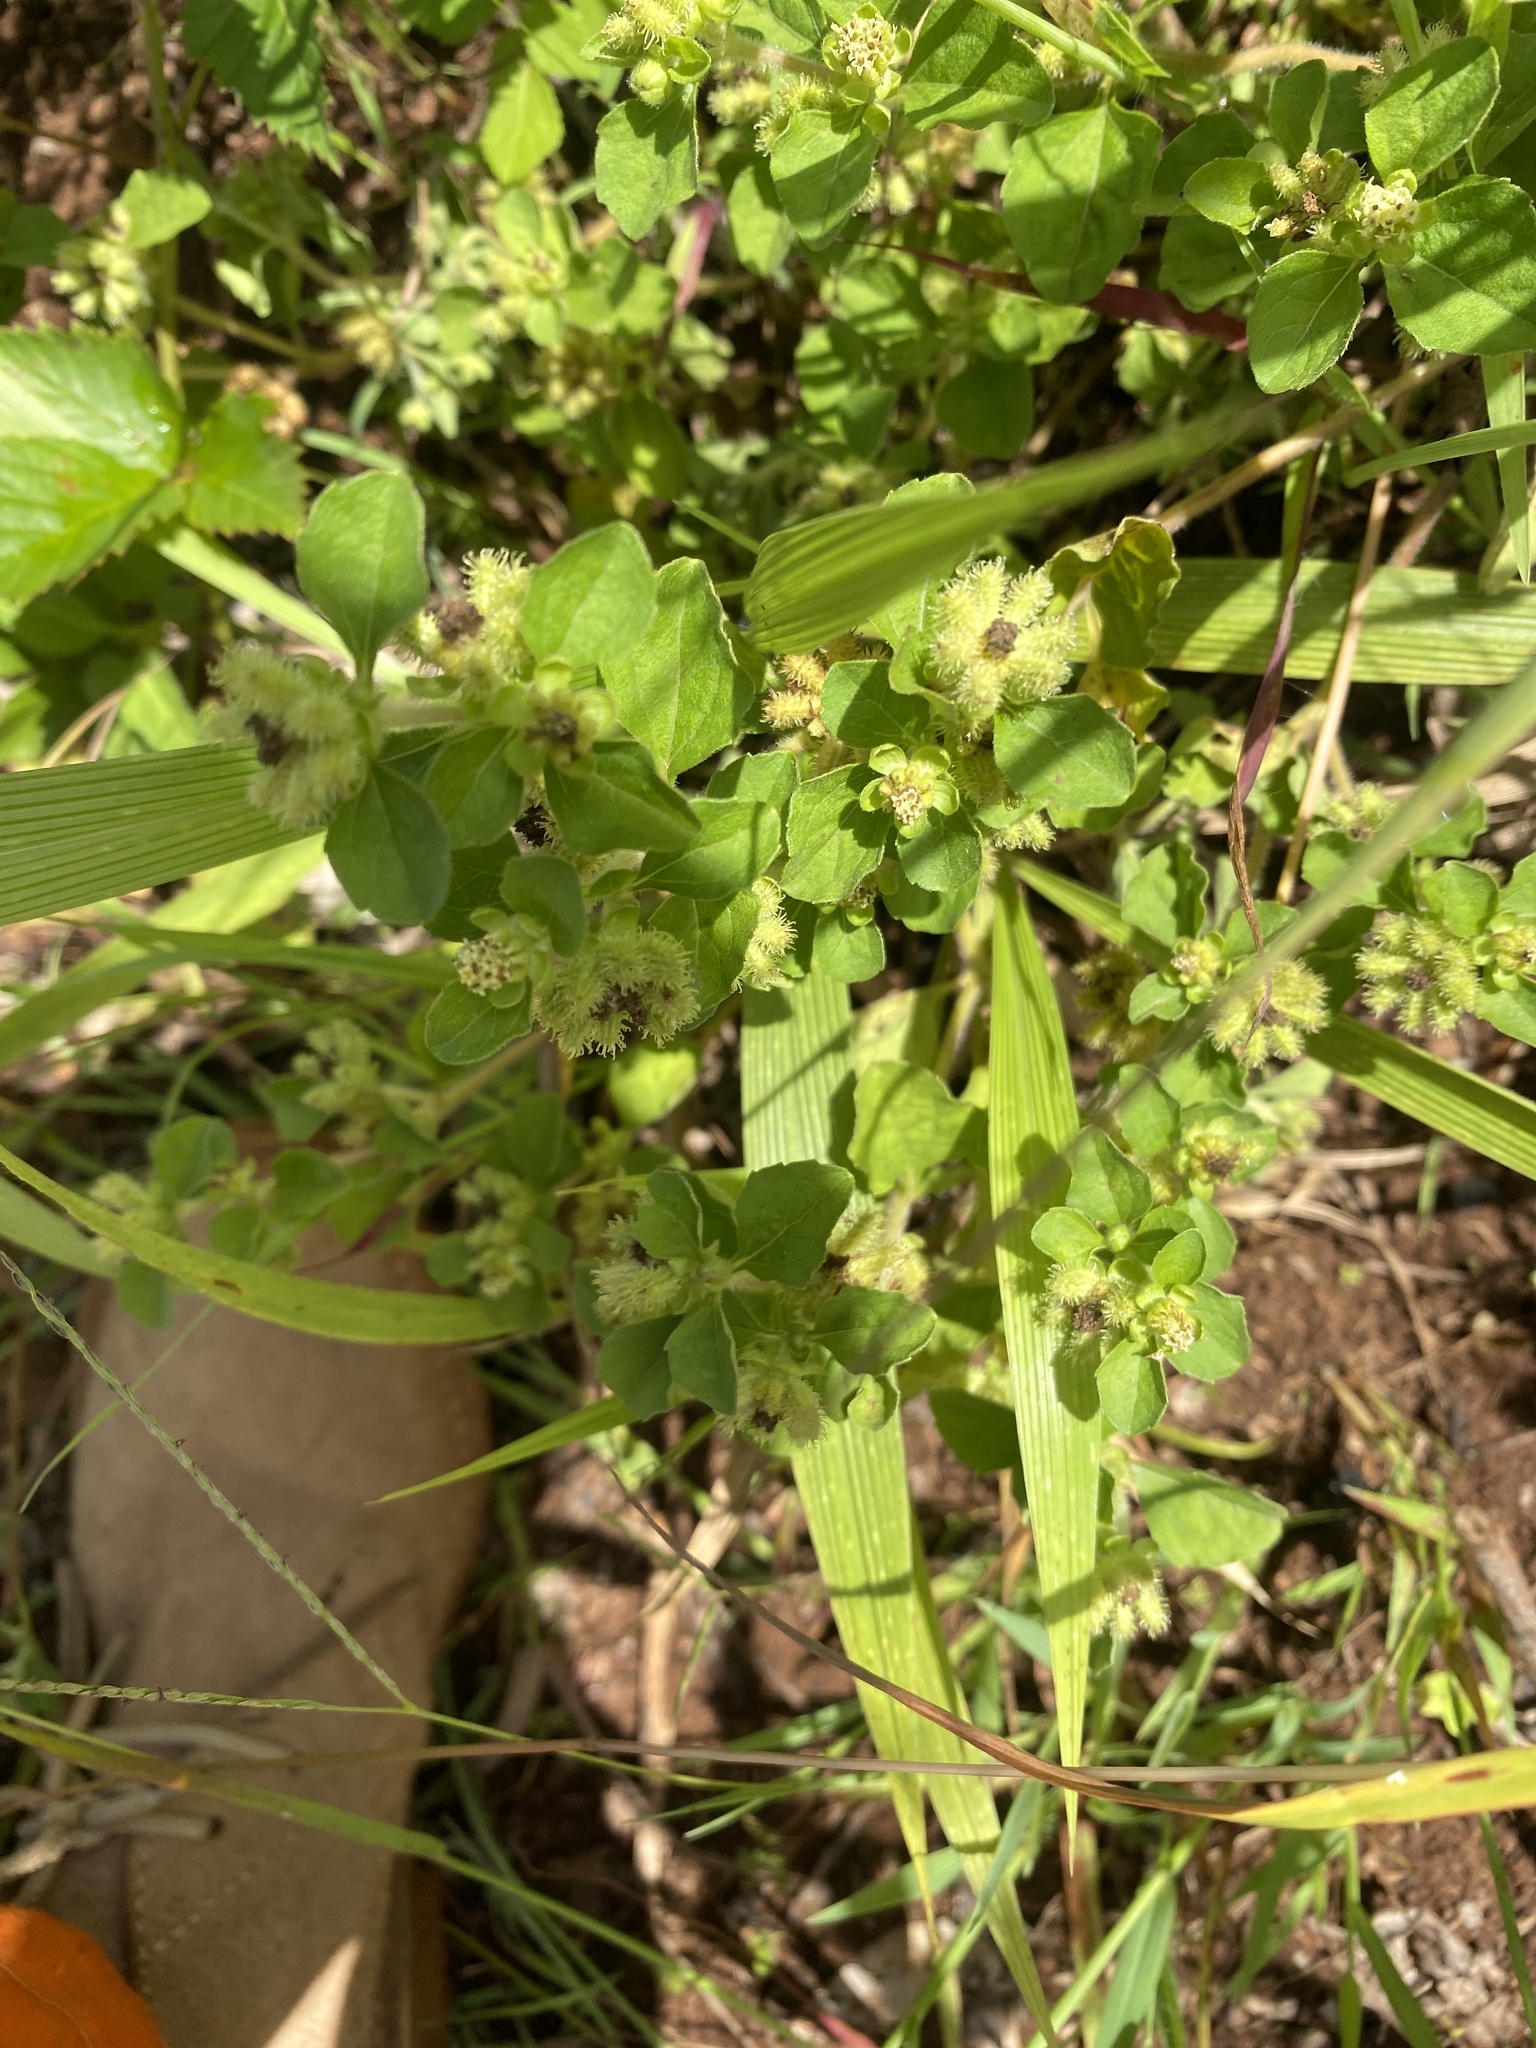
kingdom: Plantae
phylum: Tracheophyta
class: Magnoliopsida
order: Asterales
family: Asteraceae
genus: Acanthospermum
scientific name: Acanthospermum australe
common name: Paraguayan starbur
